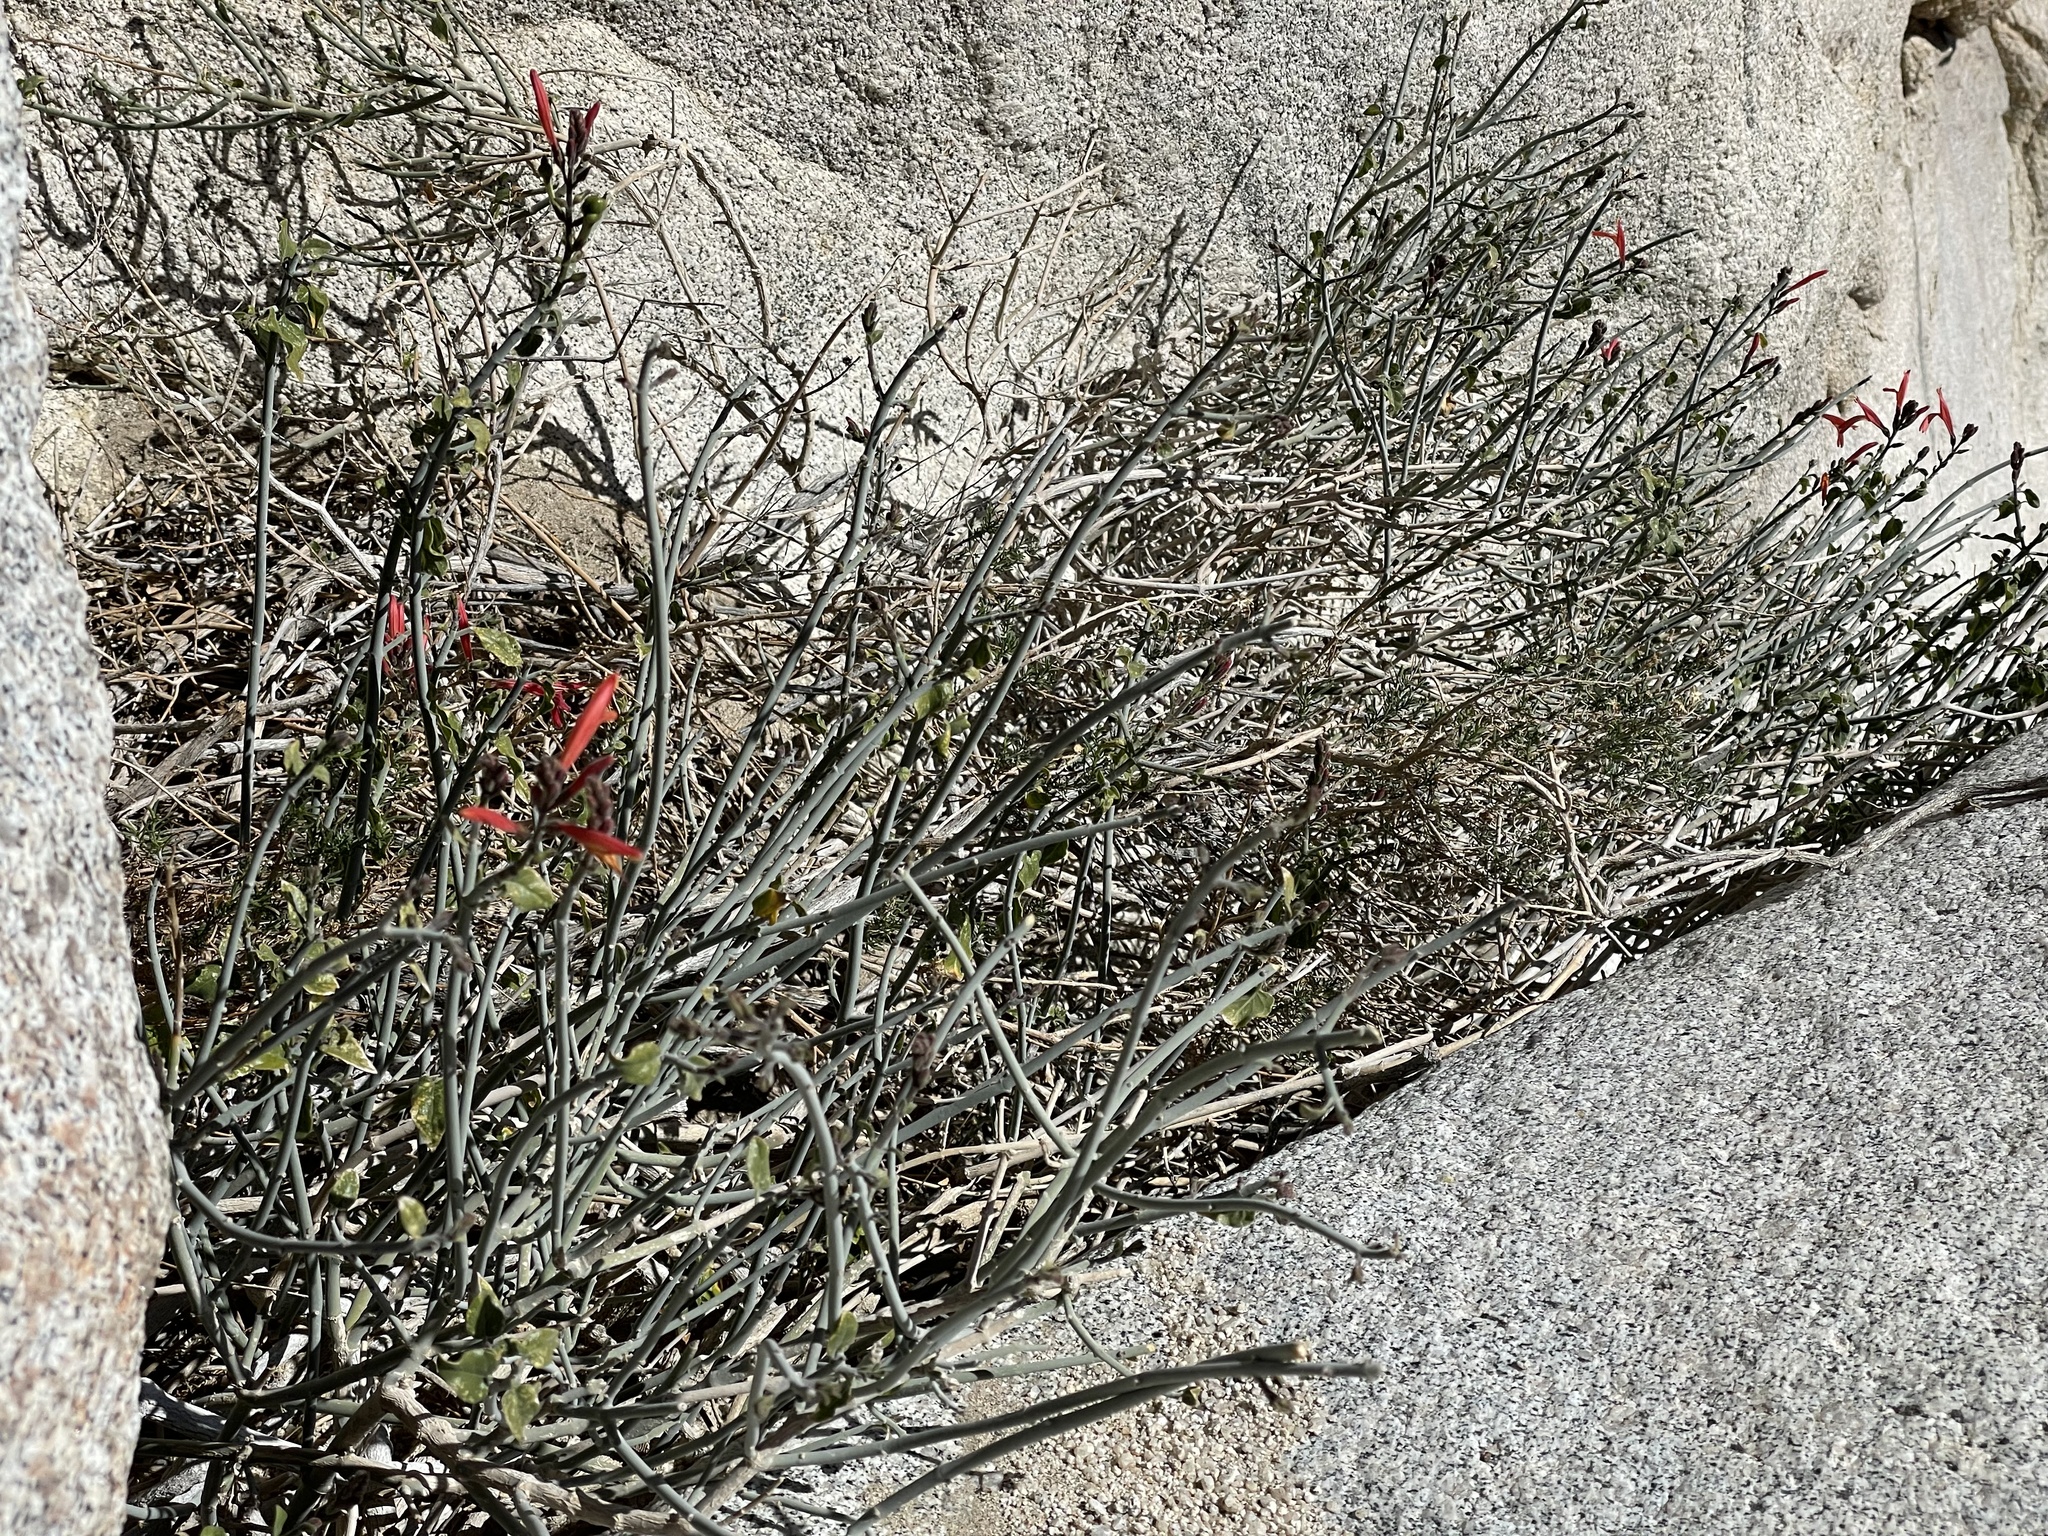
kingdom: Plantae
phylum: Tracheophyta
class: Magnoliopsida
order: Lamiales
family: Acanthaceae
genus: Justicia
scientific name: Justicia californica
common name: Chuparosa-honeysuckle
